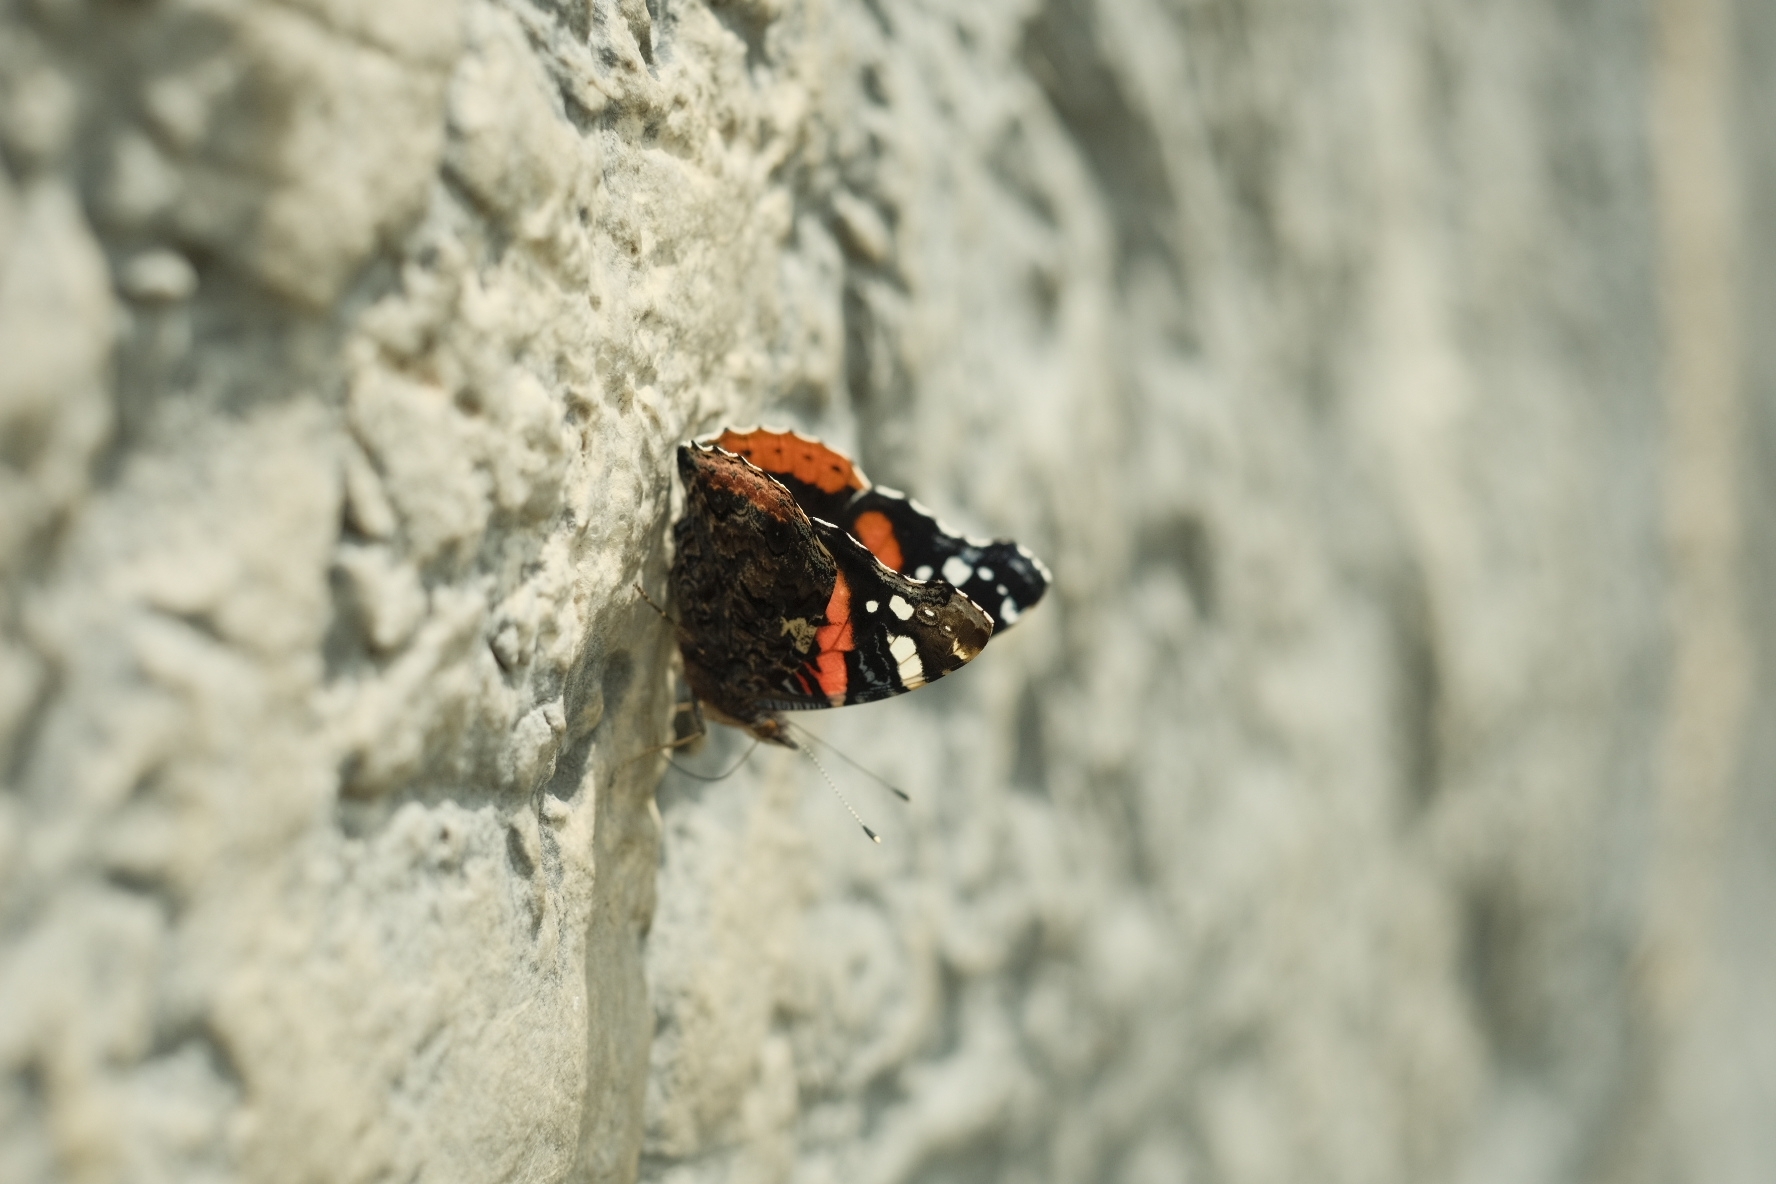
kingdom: Animalia
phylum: Arthropoda
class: Insecta
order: Lepidoptera
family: Nymphalidae
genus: Vanessa
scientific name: Vanessa atalanta
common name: Red admiral
